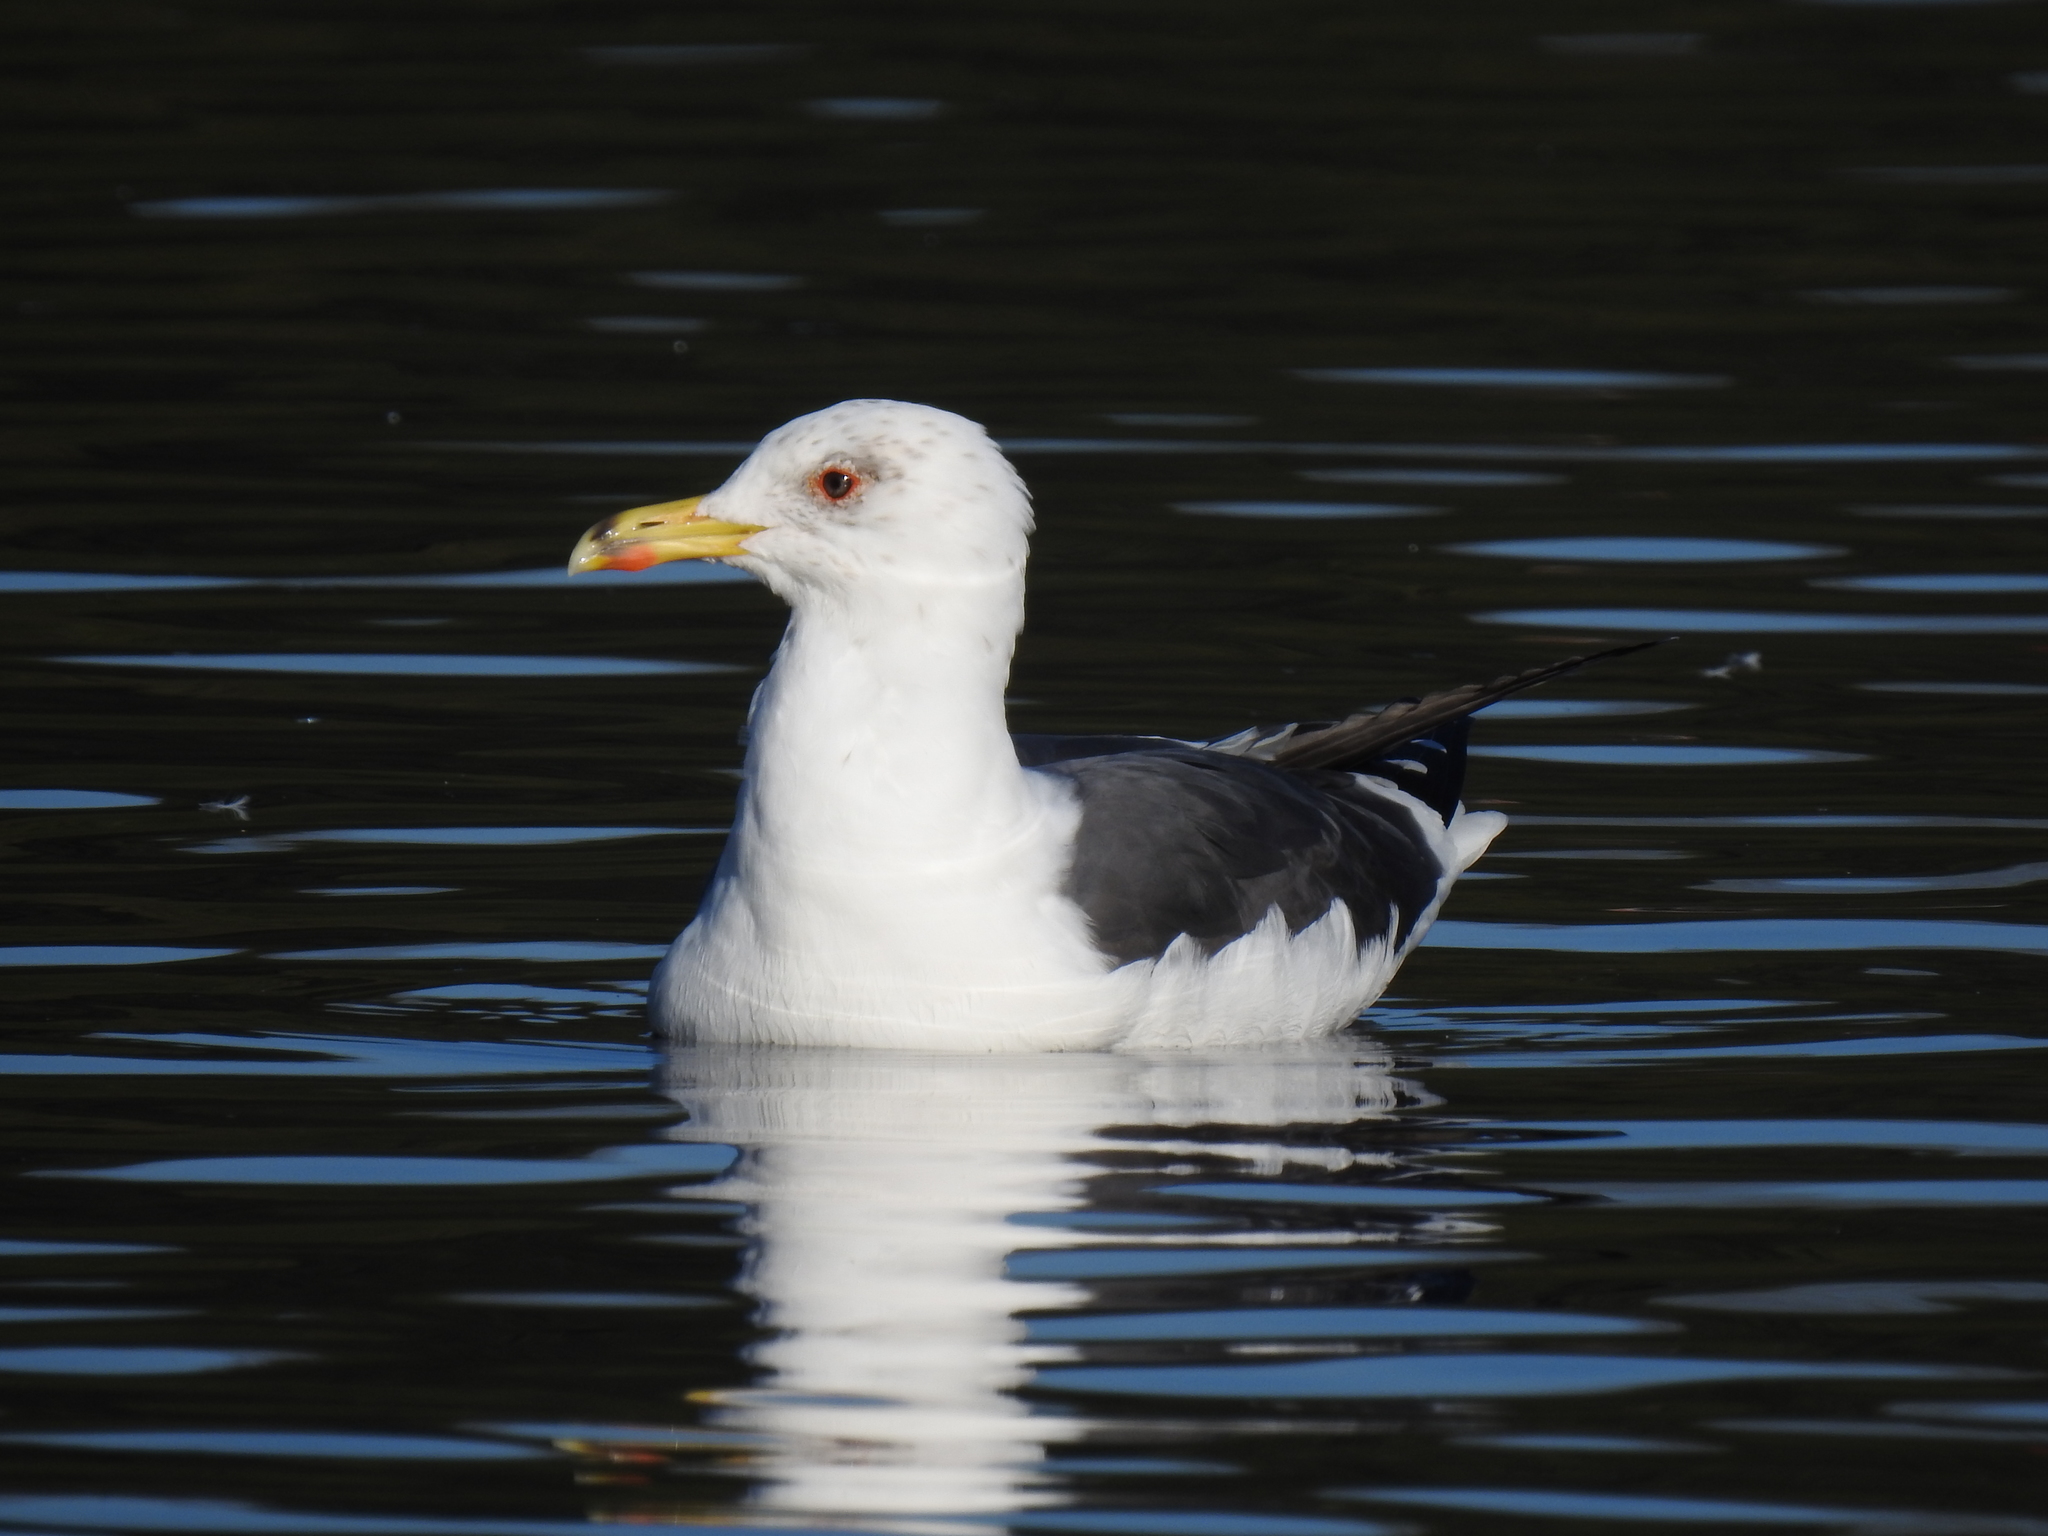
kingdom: Animalia
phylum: Chordata
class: Aves
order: Charadriiformes
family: Laridae
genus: Larus
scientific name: Larus fuscus
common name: Lesser black-backed gull
